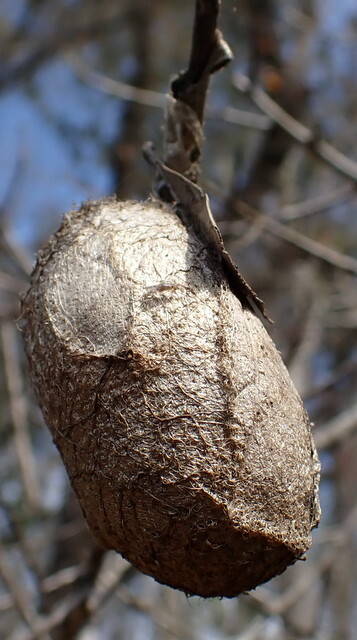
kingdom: Animalia
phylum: Arthropoda
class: Insecta
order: Lepidoptera
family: Saturniidae
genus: Antheraea
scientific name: Antheraea polyphemus
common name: Polyphemus moth
